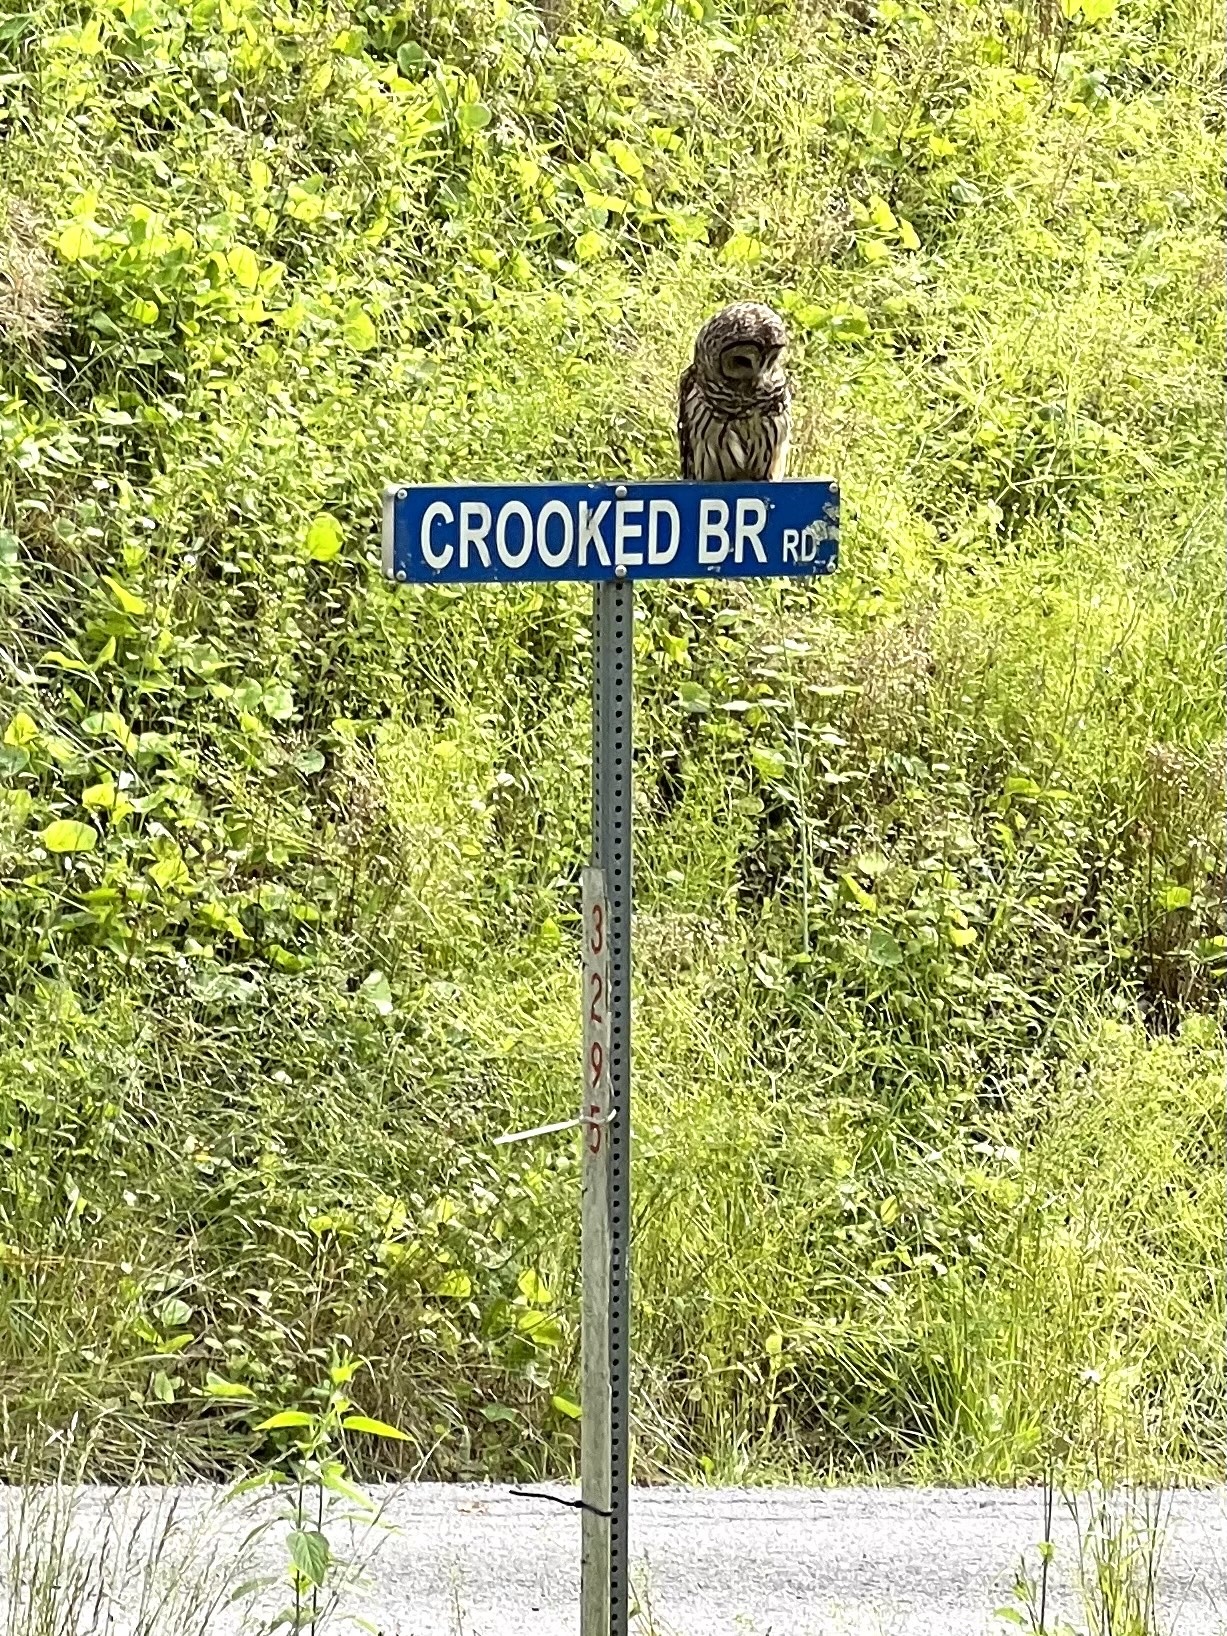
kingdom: Animalia
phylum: Chordata
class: Aves
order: Strigiformes
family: Strigidae
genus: Strix
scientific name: Strix varia
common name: Barred owl
